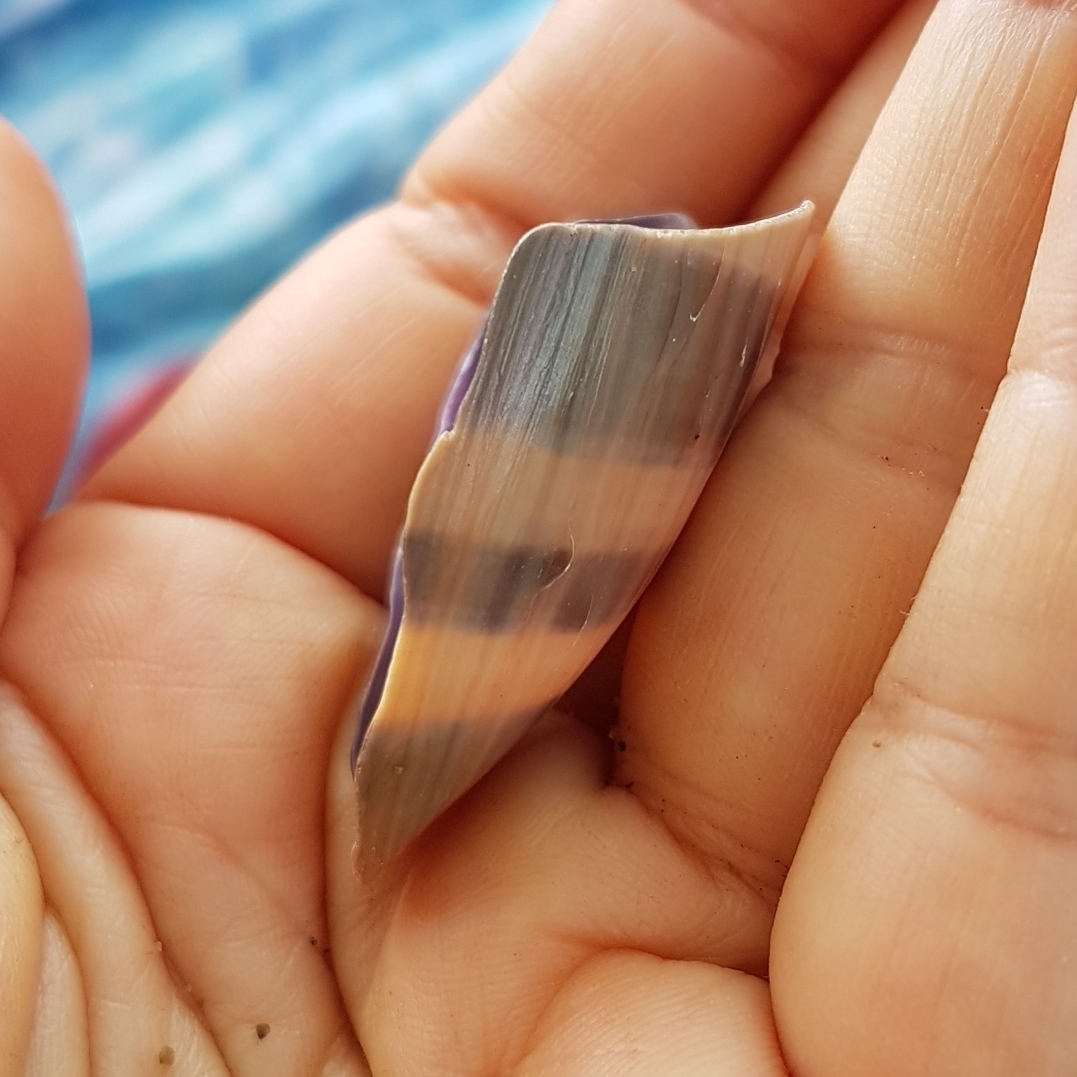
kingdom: Animalia
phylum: Mollusca
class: Gastropoda
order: Littorinimorpha
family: Cypraeidae
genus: Macrocypraea
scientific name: Macrocypraea cervinetta
